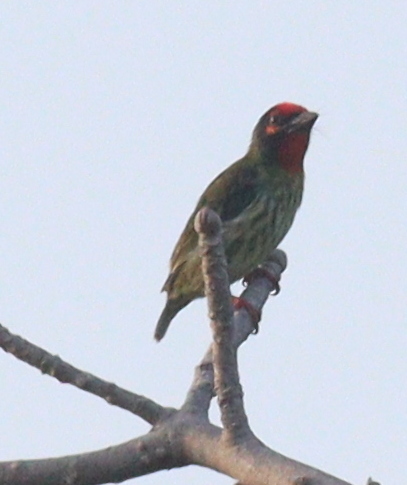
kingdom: Animalia
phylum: Chordata
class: Aves
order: Piciformes
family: Megalaimidae
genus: Psilopogon
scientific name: Psilopogon haemacephalus
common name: Coppersmith barbet
